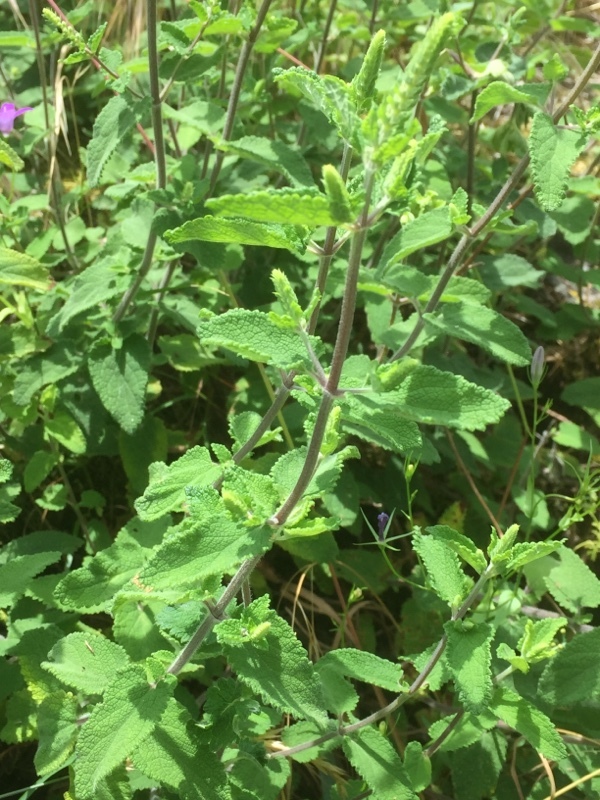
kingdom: Plantae
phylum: Tracheophyta
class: Magnoliopsida
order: Lamiales
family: Lamiaceae
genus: Teucrium
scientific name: Teucrium scorodonia
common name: Woodland germander
